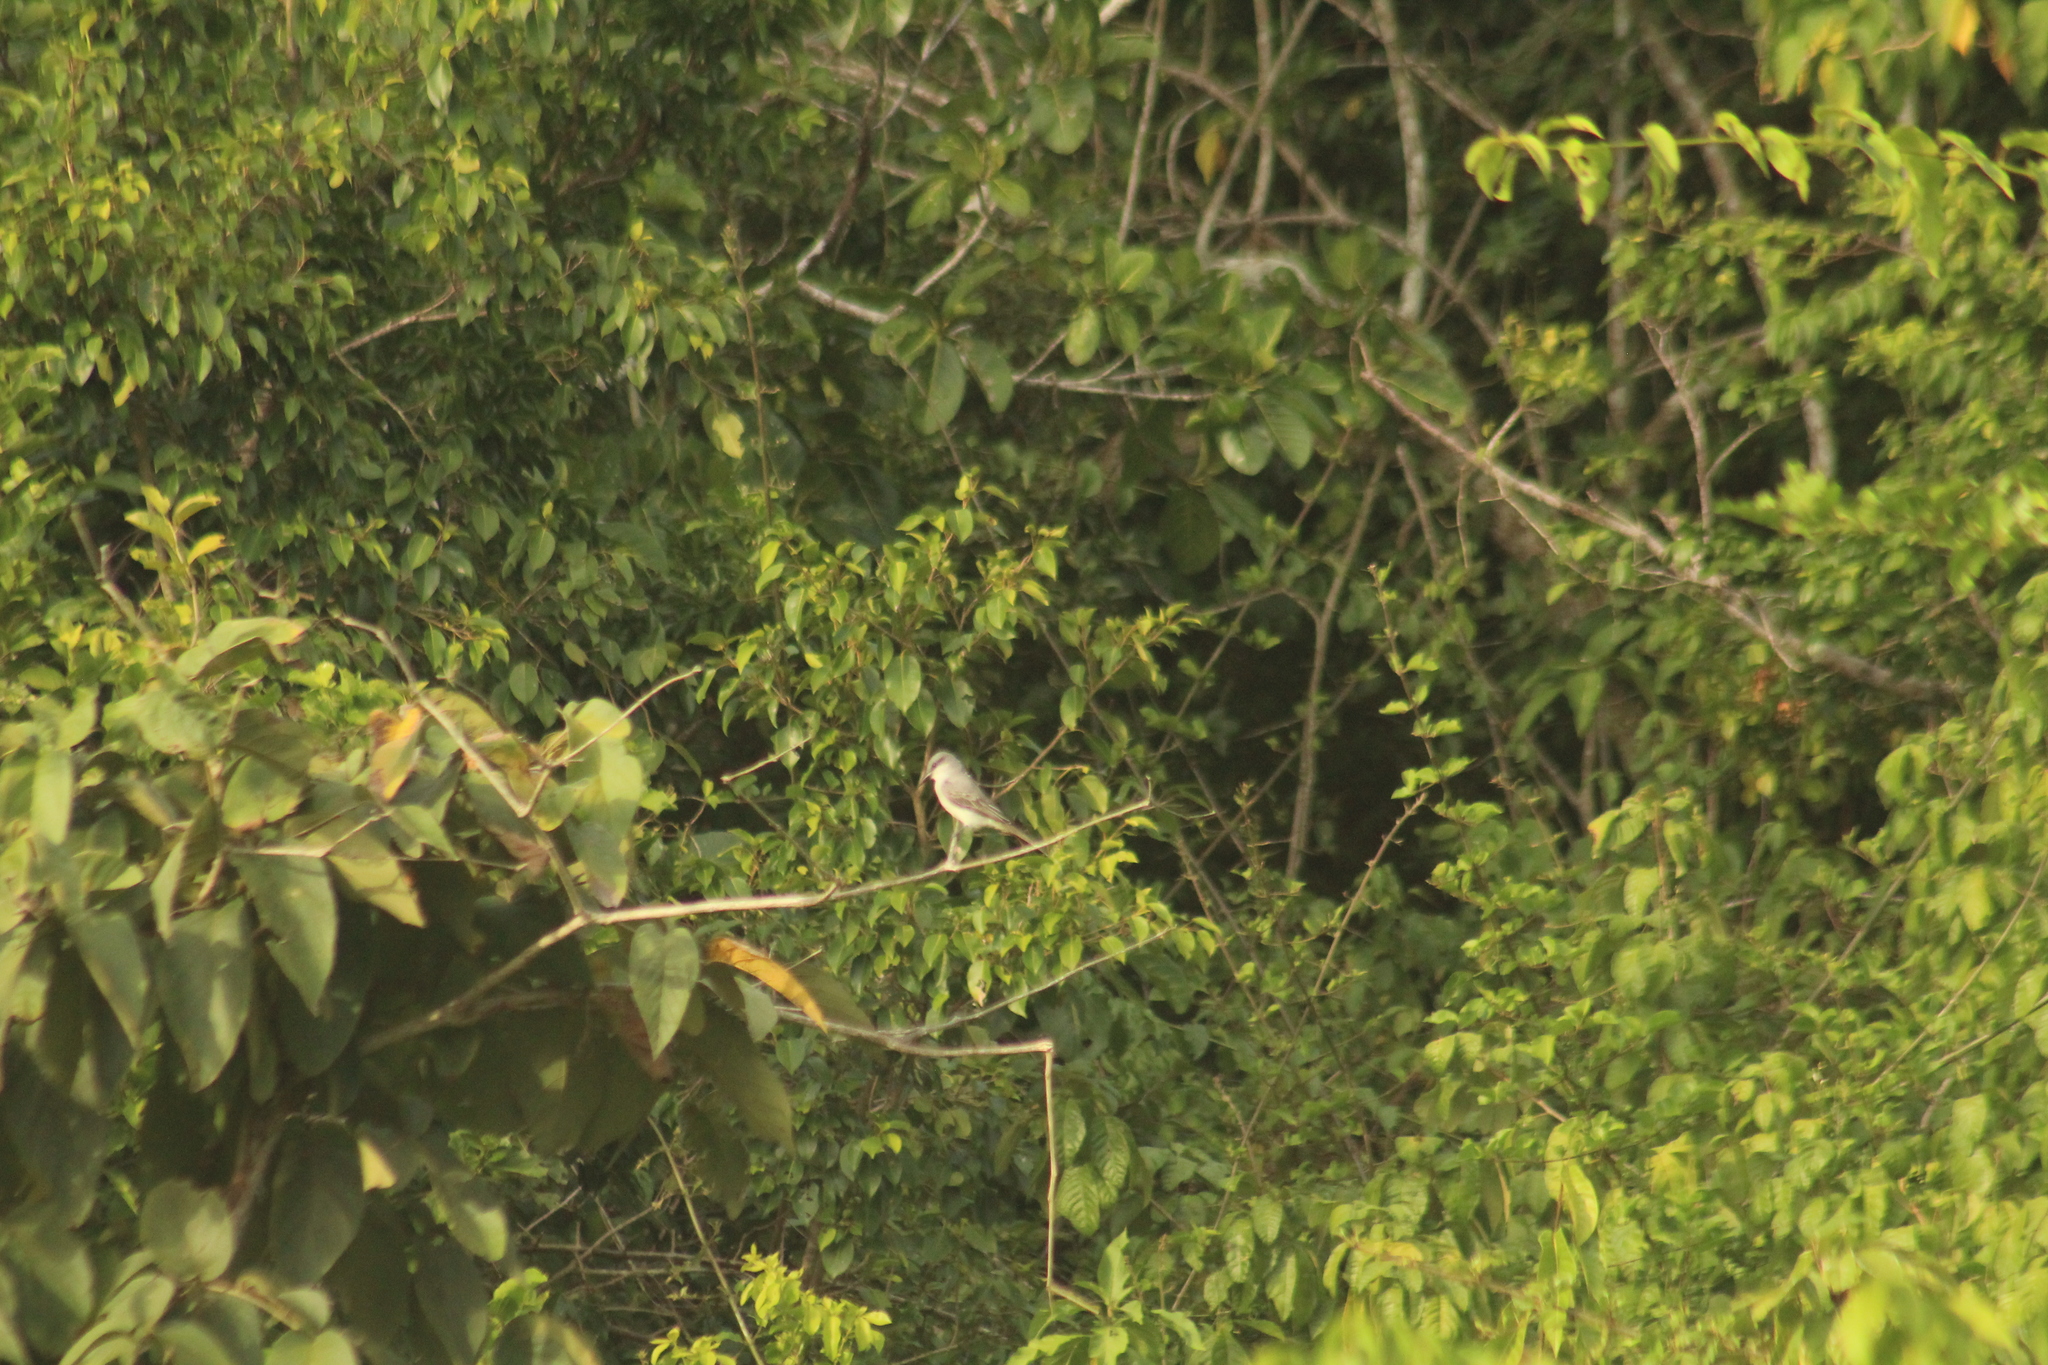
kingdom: Animalia
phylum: Chordata
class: Aves
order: Passeriformes
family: Tyrannidae
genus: Tyrannus
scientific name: Tyrannus dominicensis
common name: Gray kingbird
